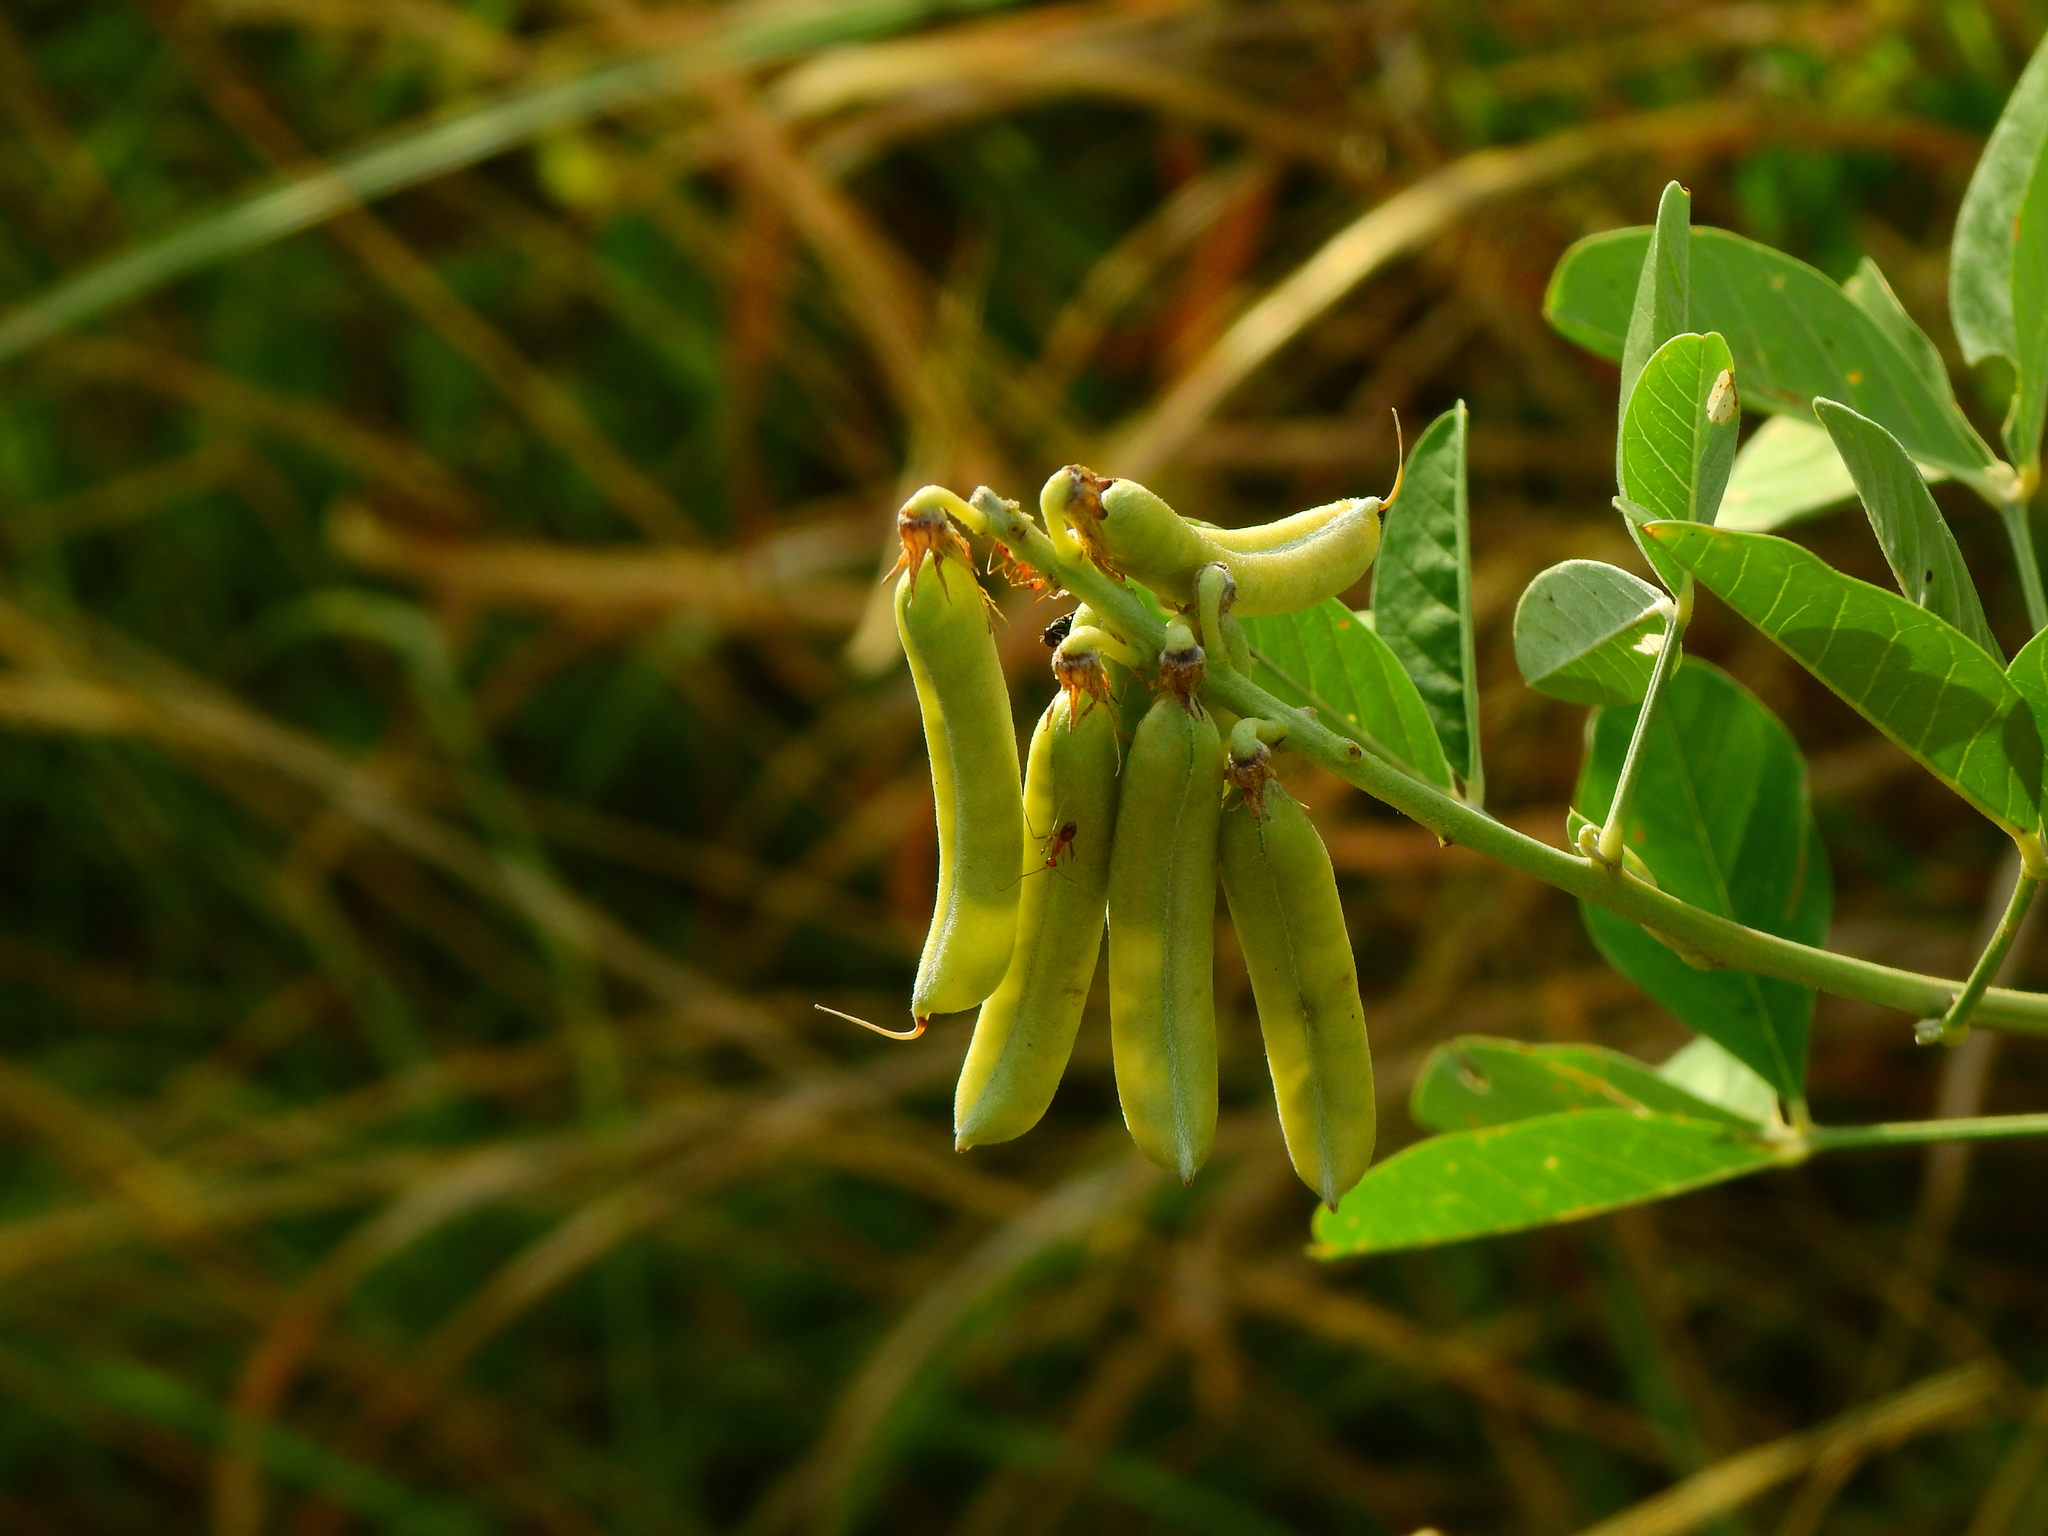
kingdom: Plantae
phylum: Tracheophyta
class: Magnoliopsida
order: Fabales
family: Fabaceae
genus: Crotalaria
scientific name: Crotalaria pallida
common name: Smooth rattlebox
